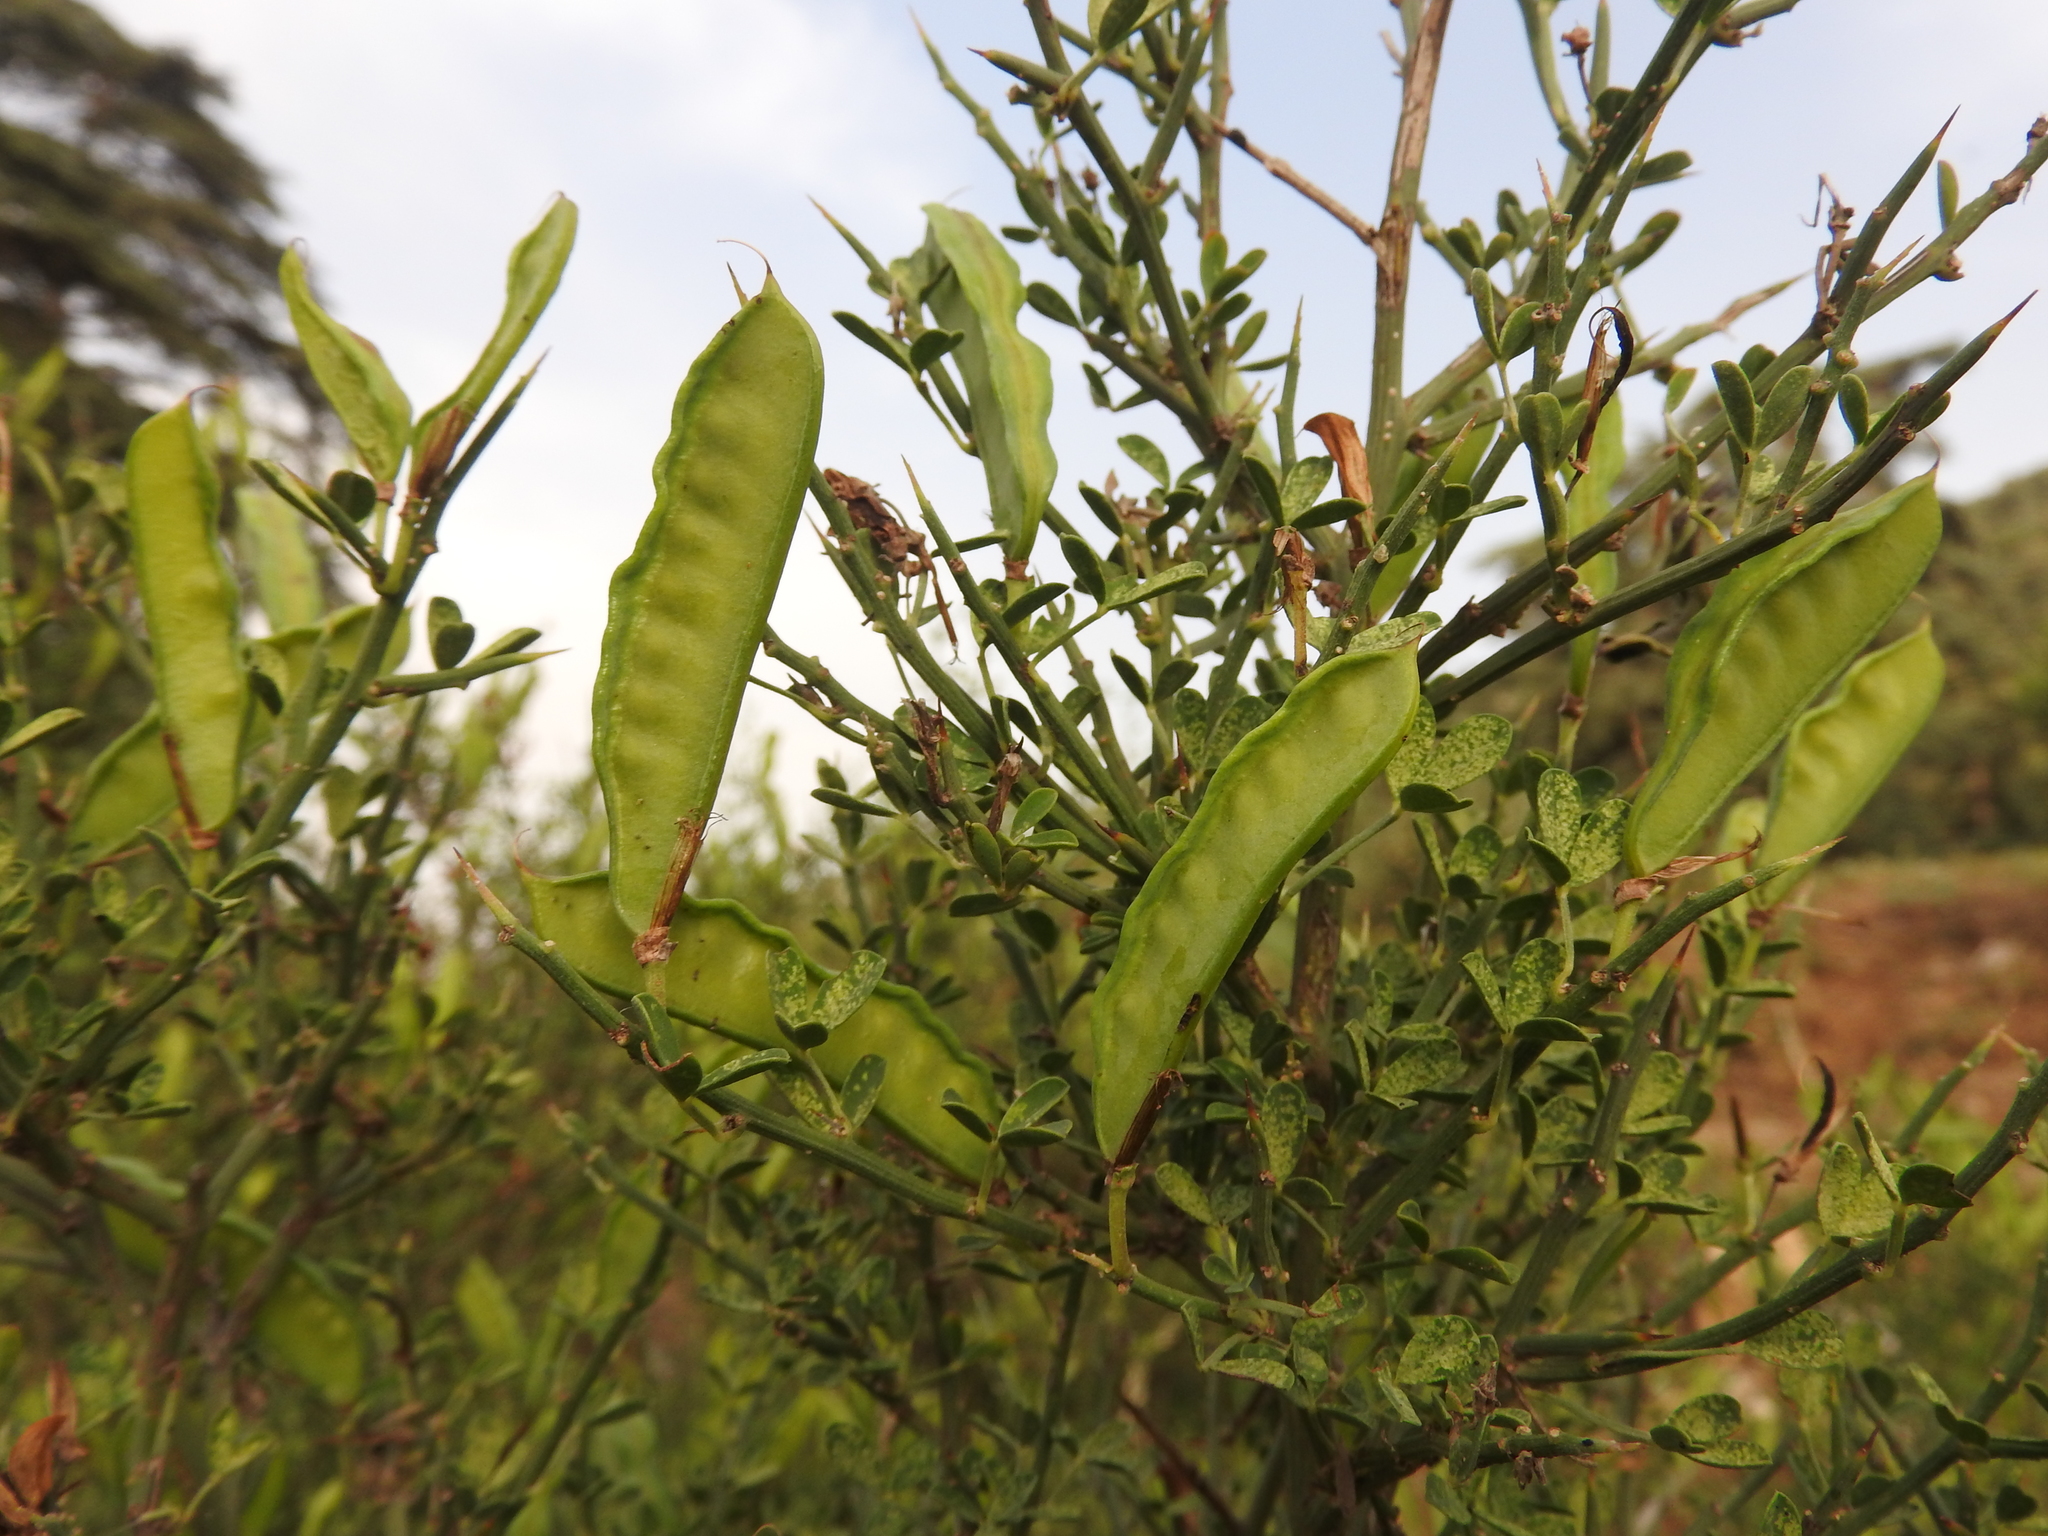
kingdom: Plantae
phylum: Tracheophyta
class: Magnoliopsida
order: Fabales
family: Fabaceae
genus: Calicotome
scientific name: Calicotome spinosa
